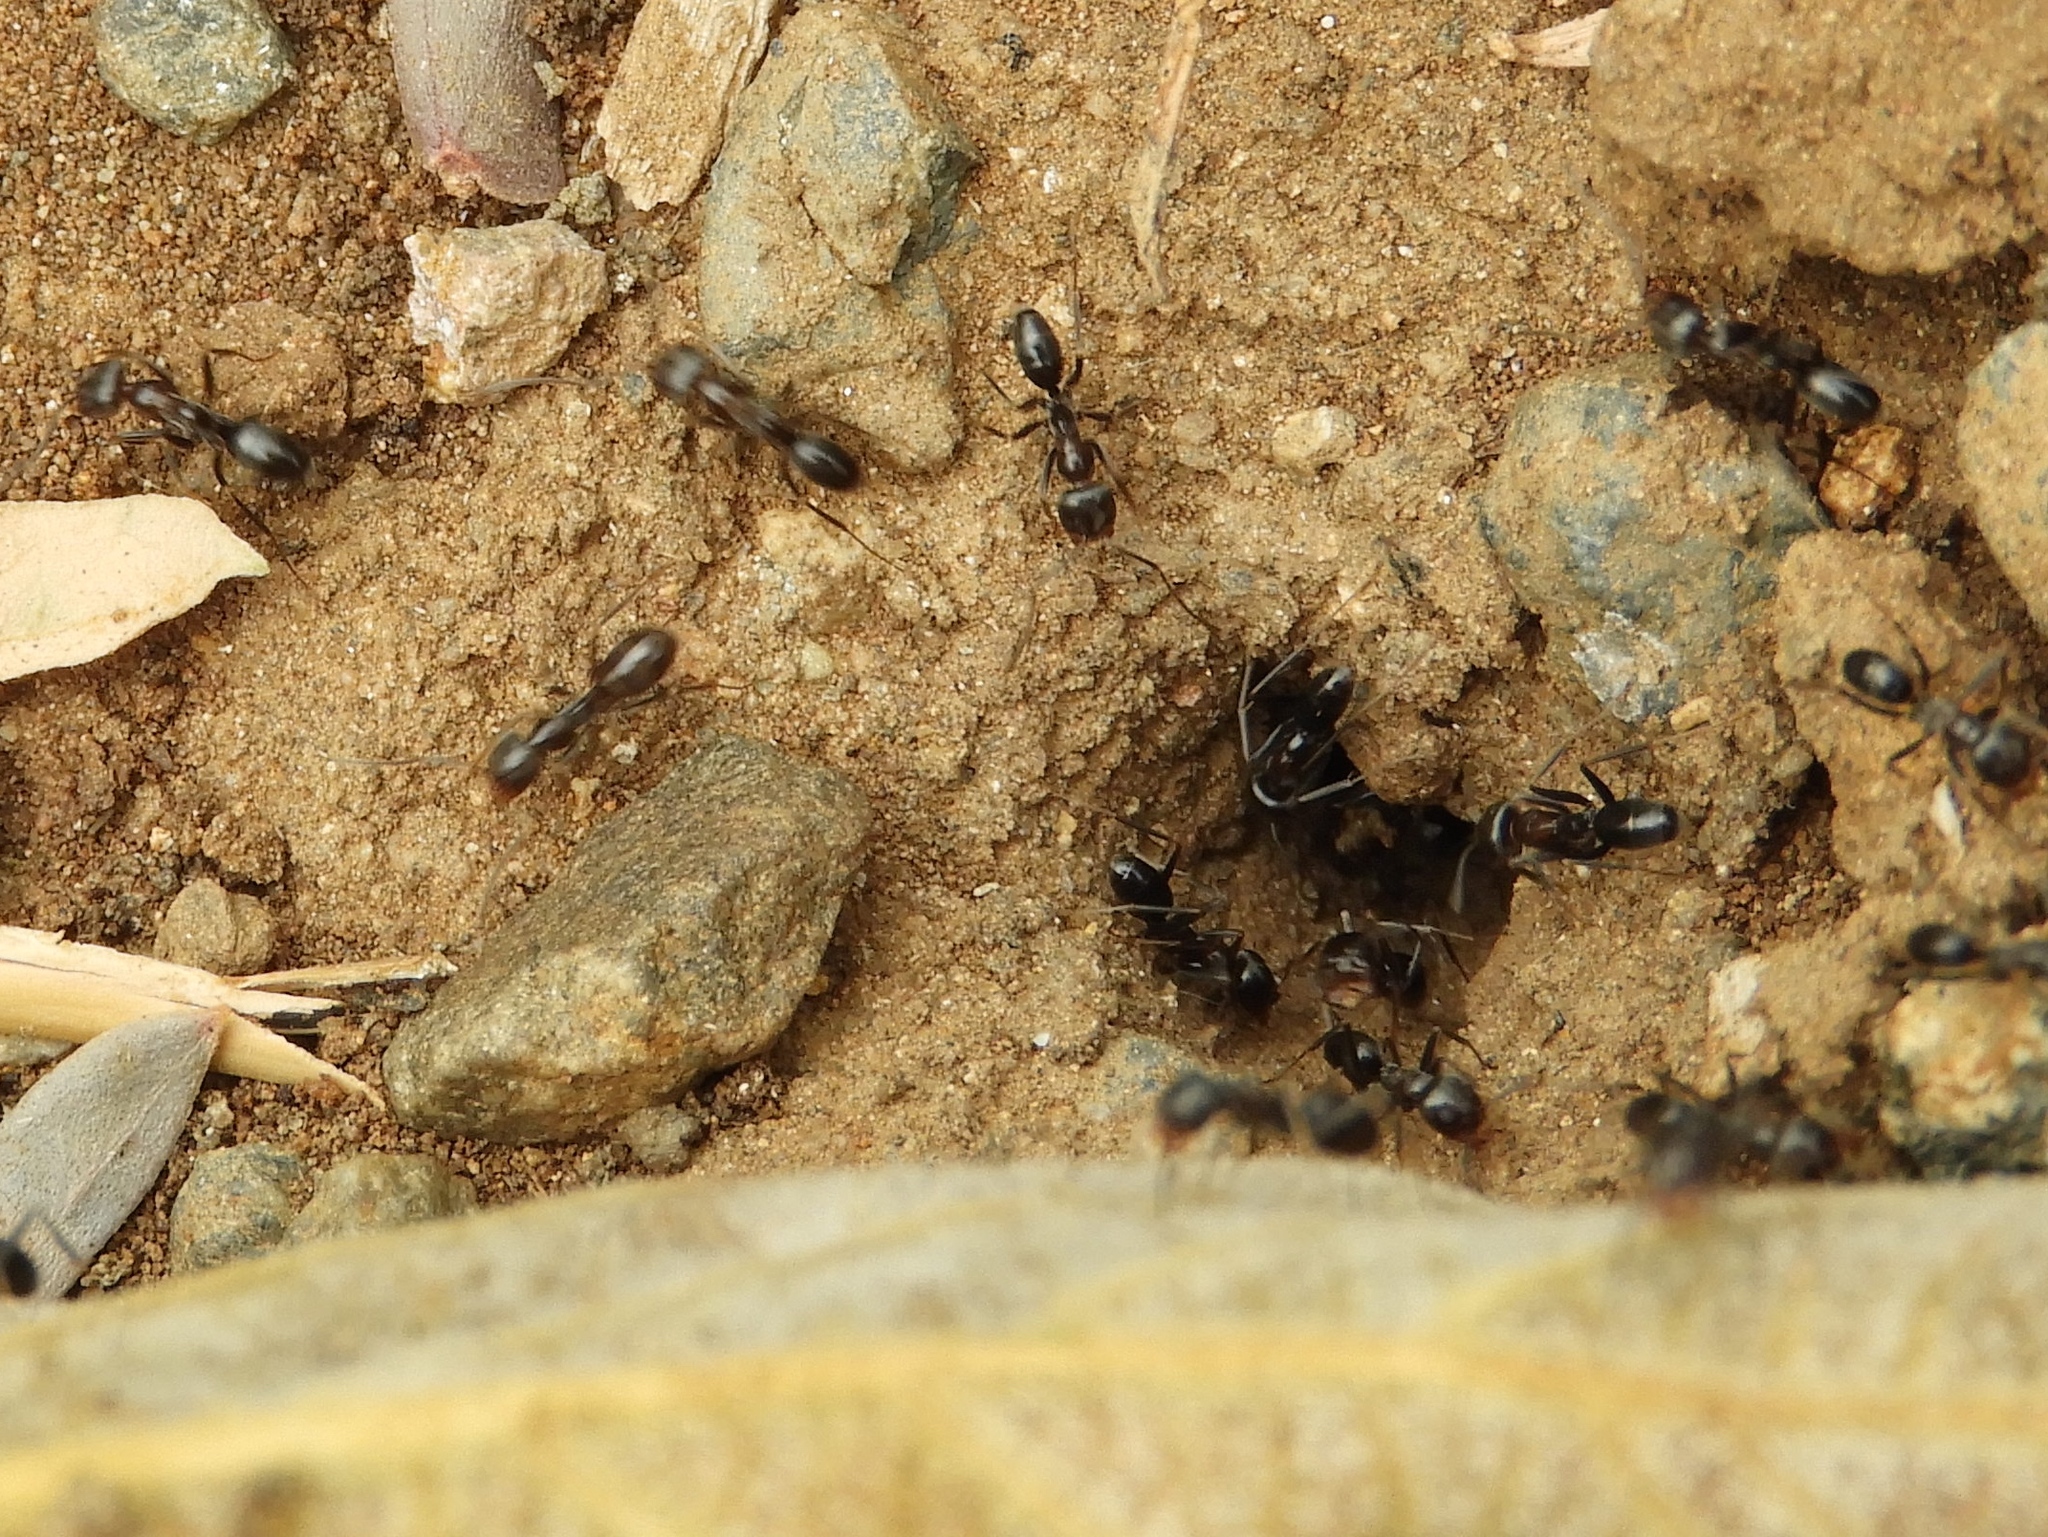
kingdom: Animalia
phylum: Arthropoda
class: Insecta
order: Hymenoptera
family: Formicidae
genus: Dorymyrmex
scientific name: Dorymyrmex
